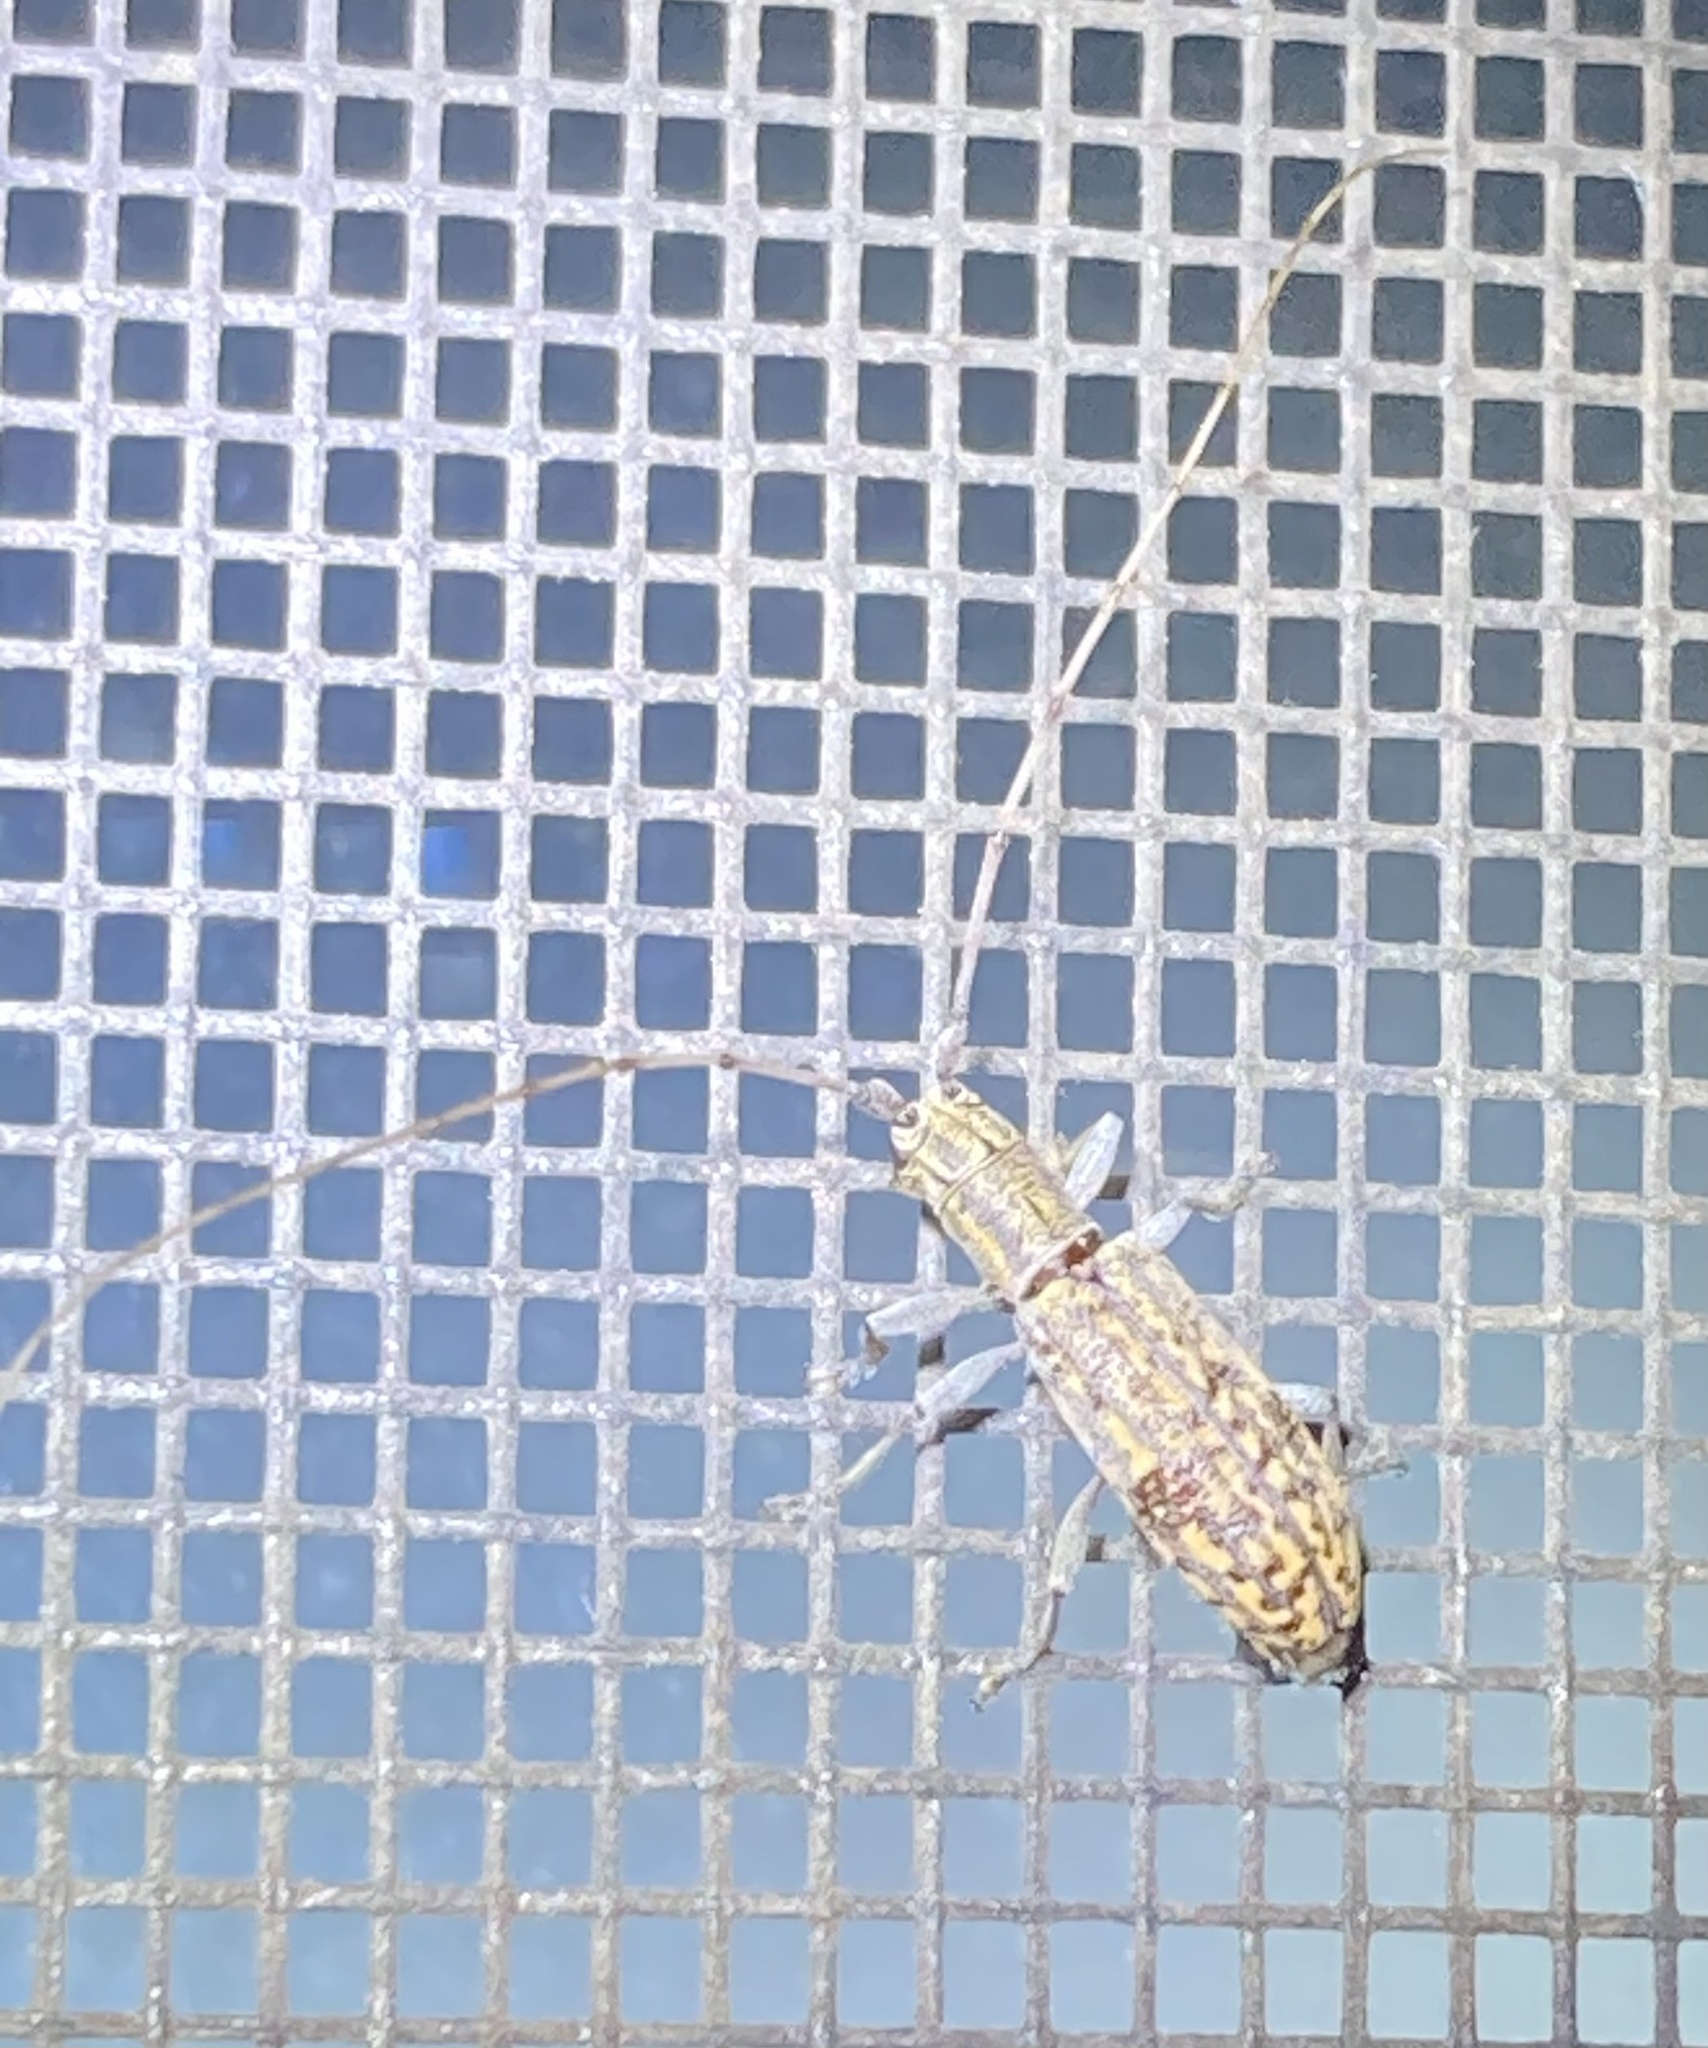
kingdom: Animalia
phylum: Arthropoda
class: Insecta
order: Coleoptera
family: Cerambycidae
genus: Dorcaschema
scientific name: Dorcaschema alternatum
